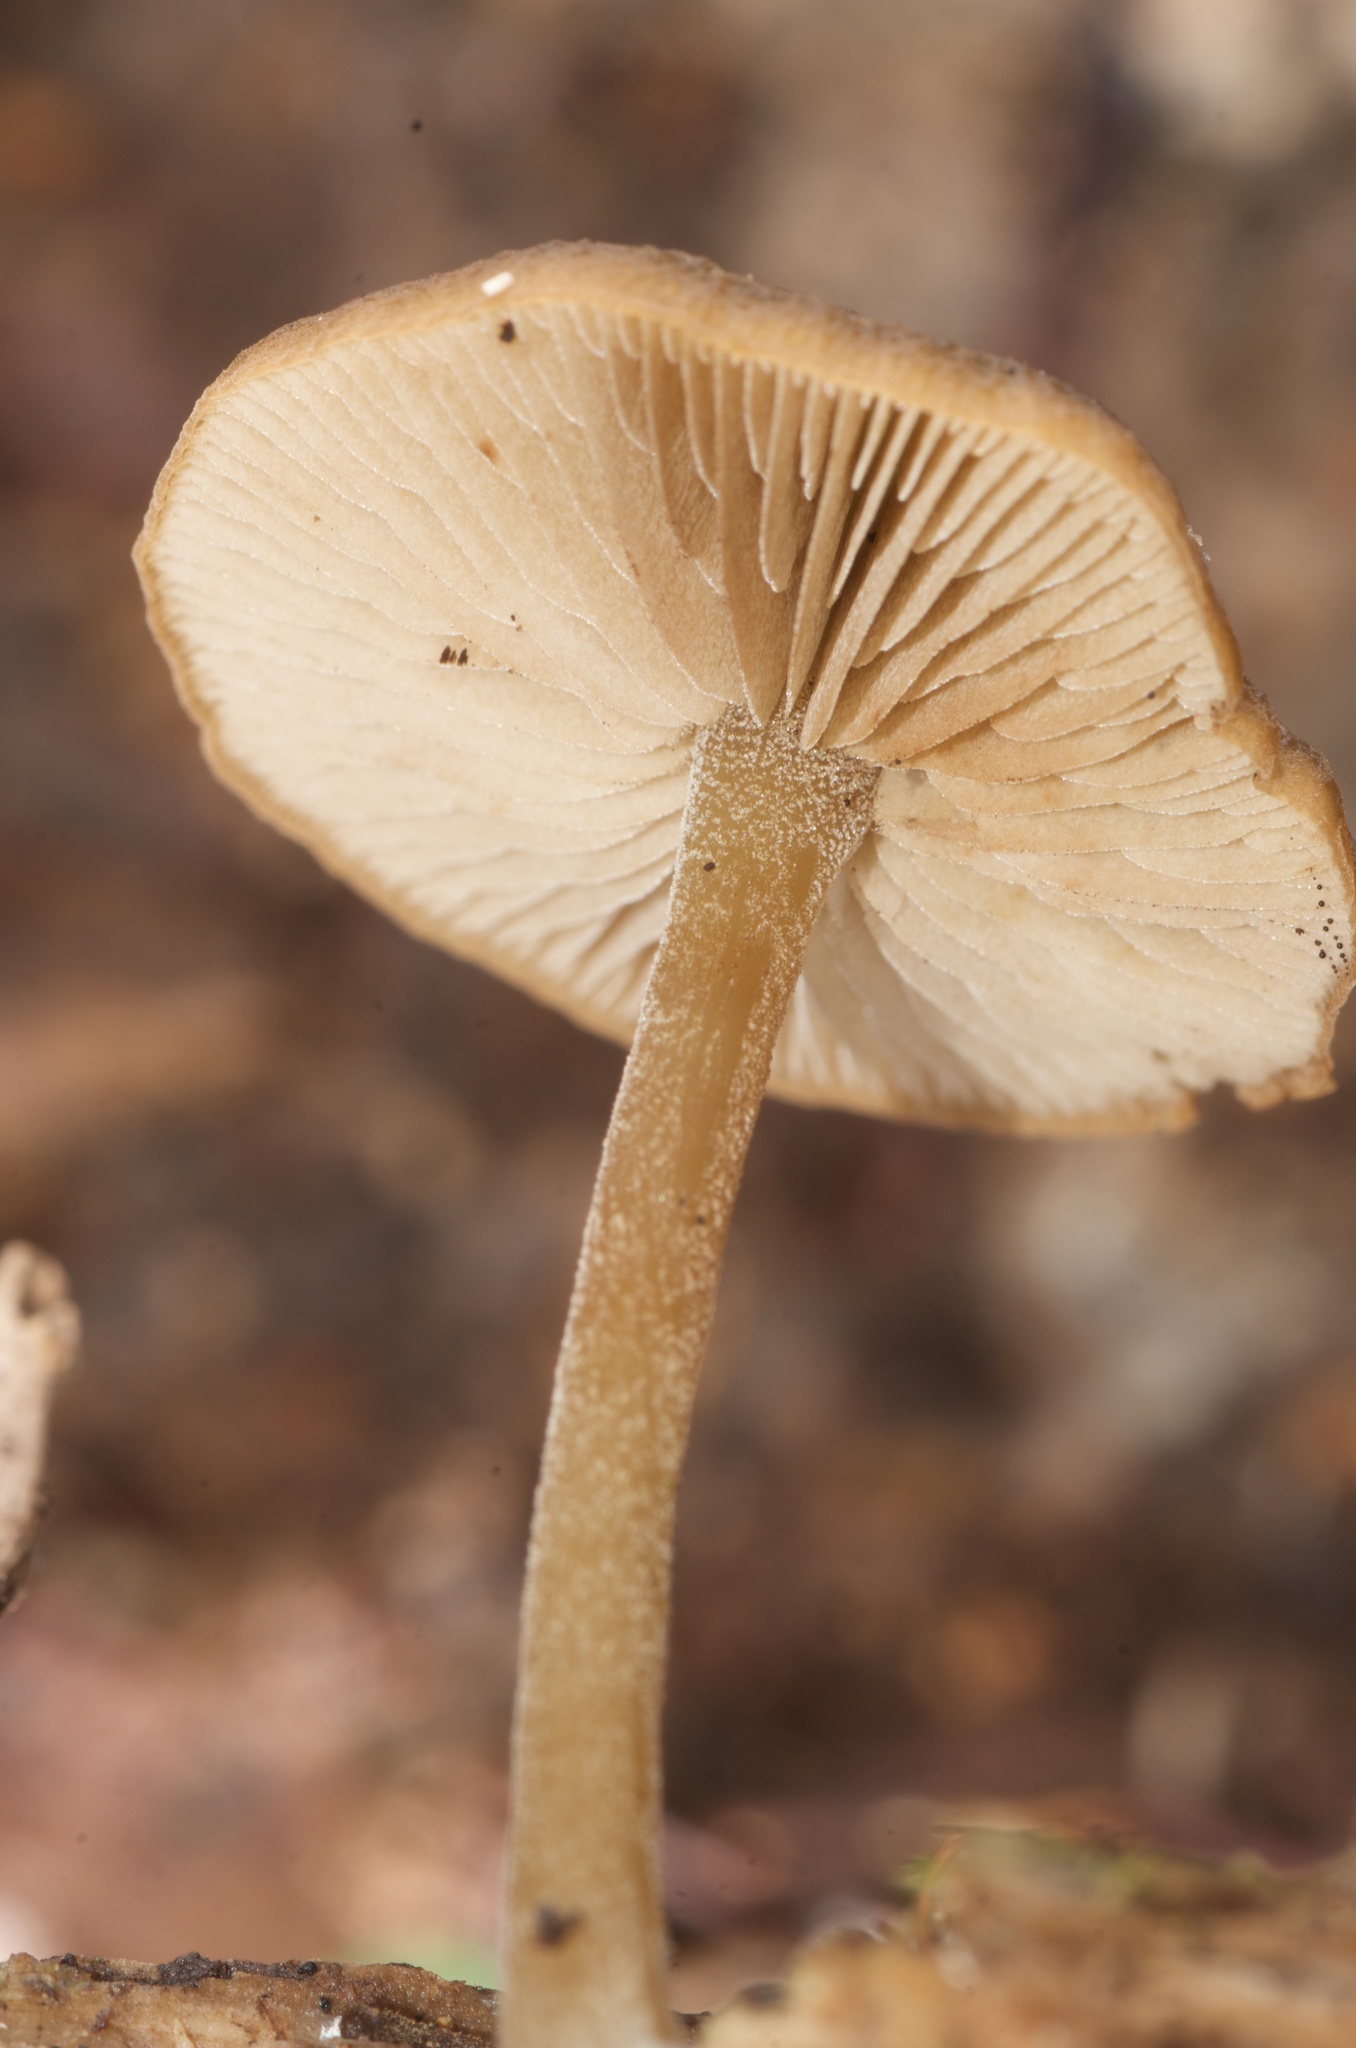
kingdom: Fungi
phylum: Basidiomycota
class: Agaricomycetes
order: Agaricales
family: Crepidotaceae
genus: Simocybe
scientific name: Simocybe phlebophora
